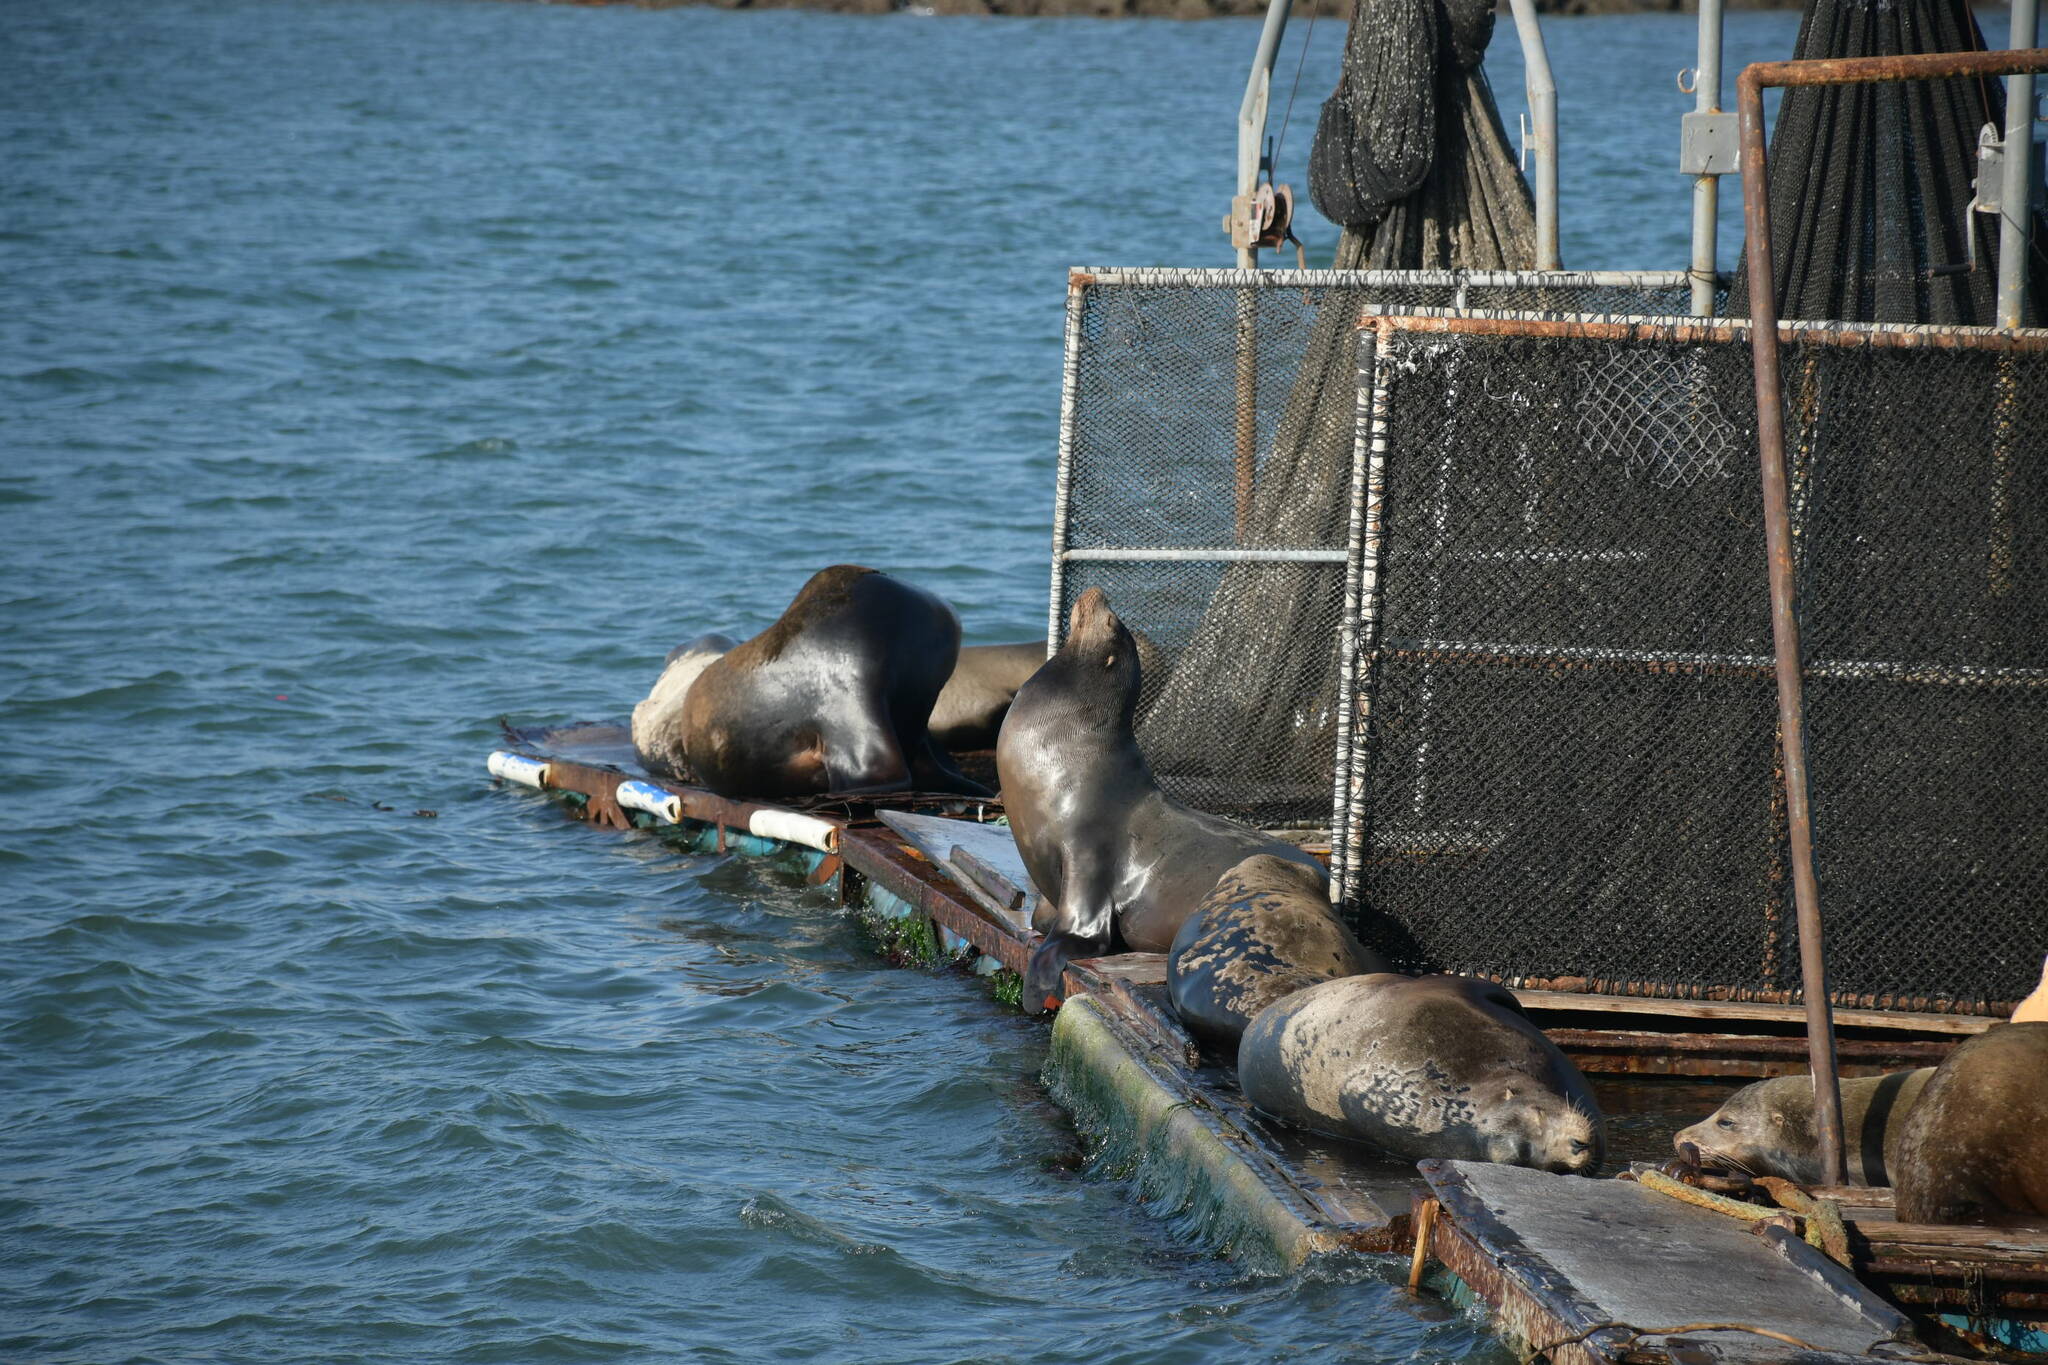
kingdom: Animalia
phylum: Chordata
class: Mammalia
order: Carnivora
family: Otariidae
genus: Zalophus
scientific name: Zalophus californianus
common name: California sea lion
